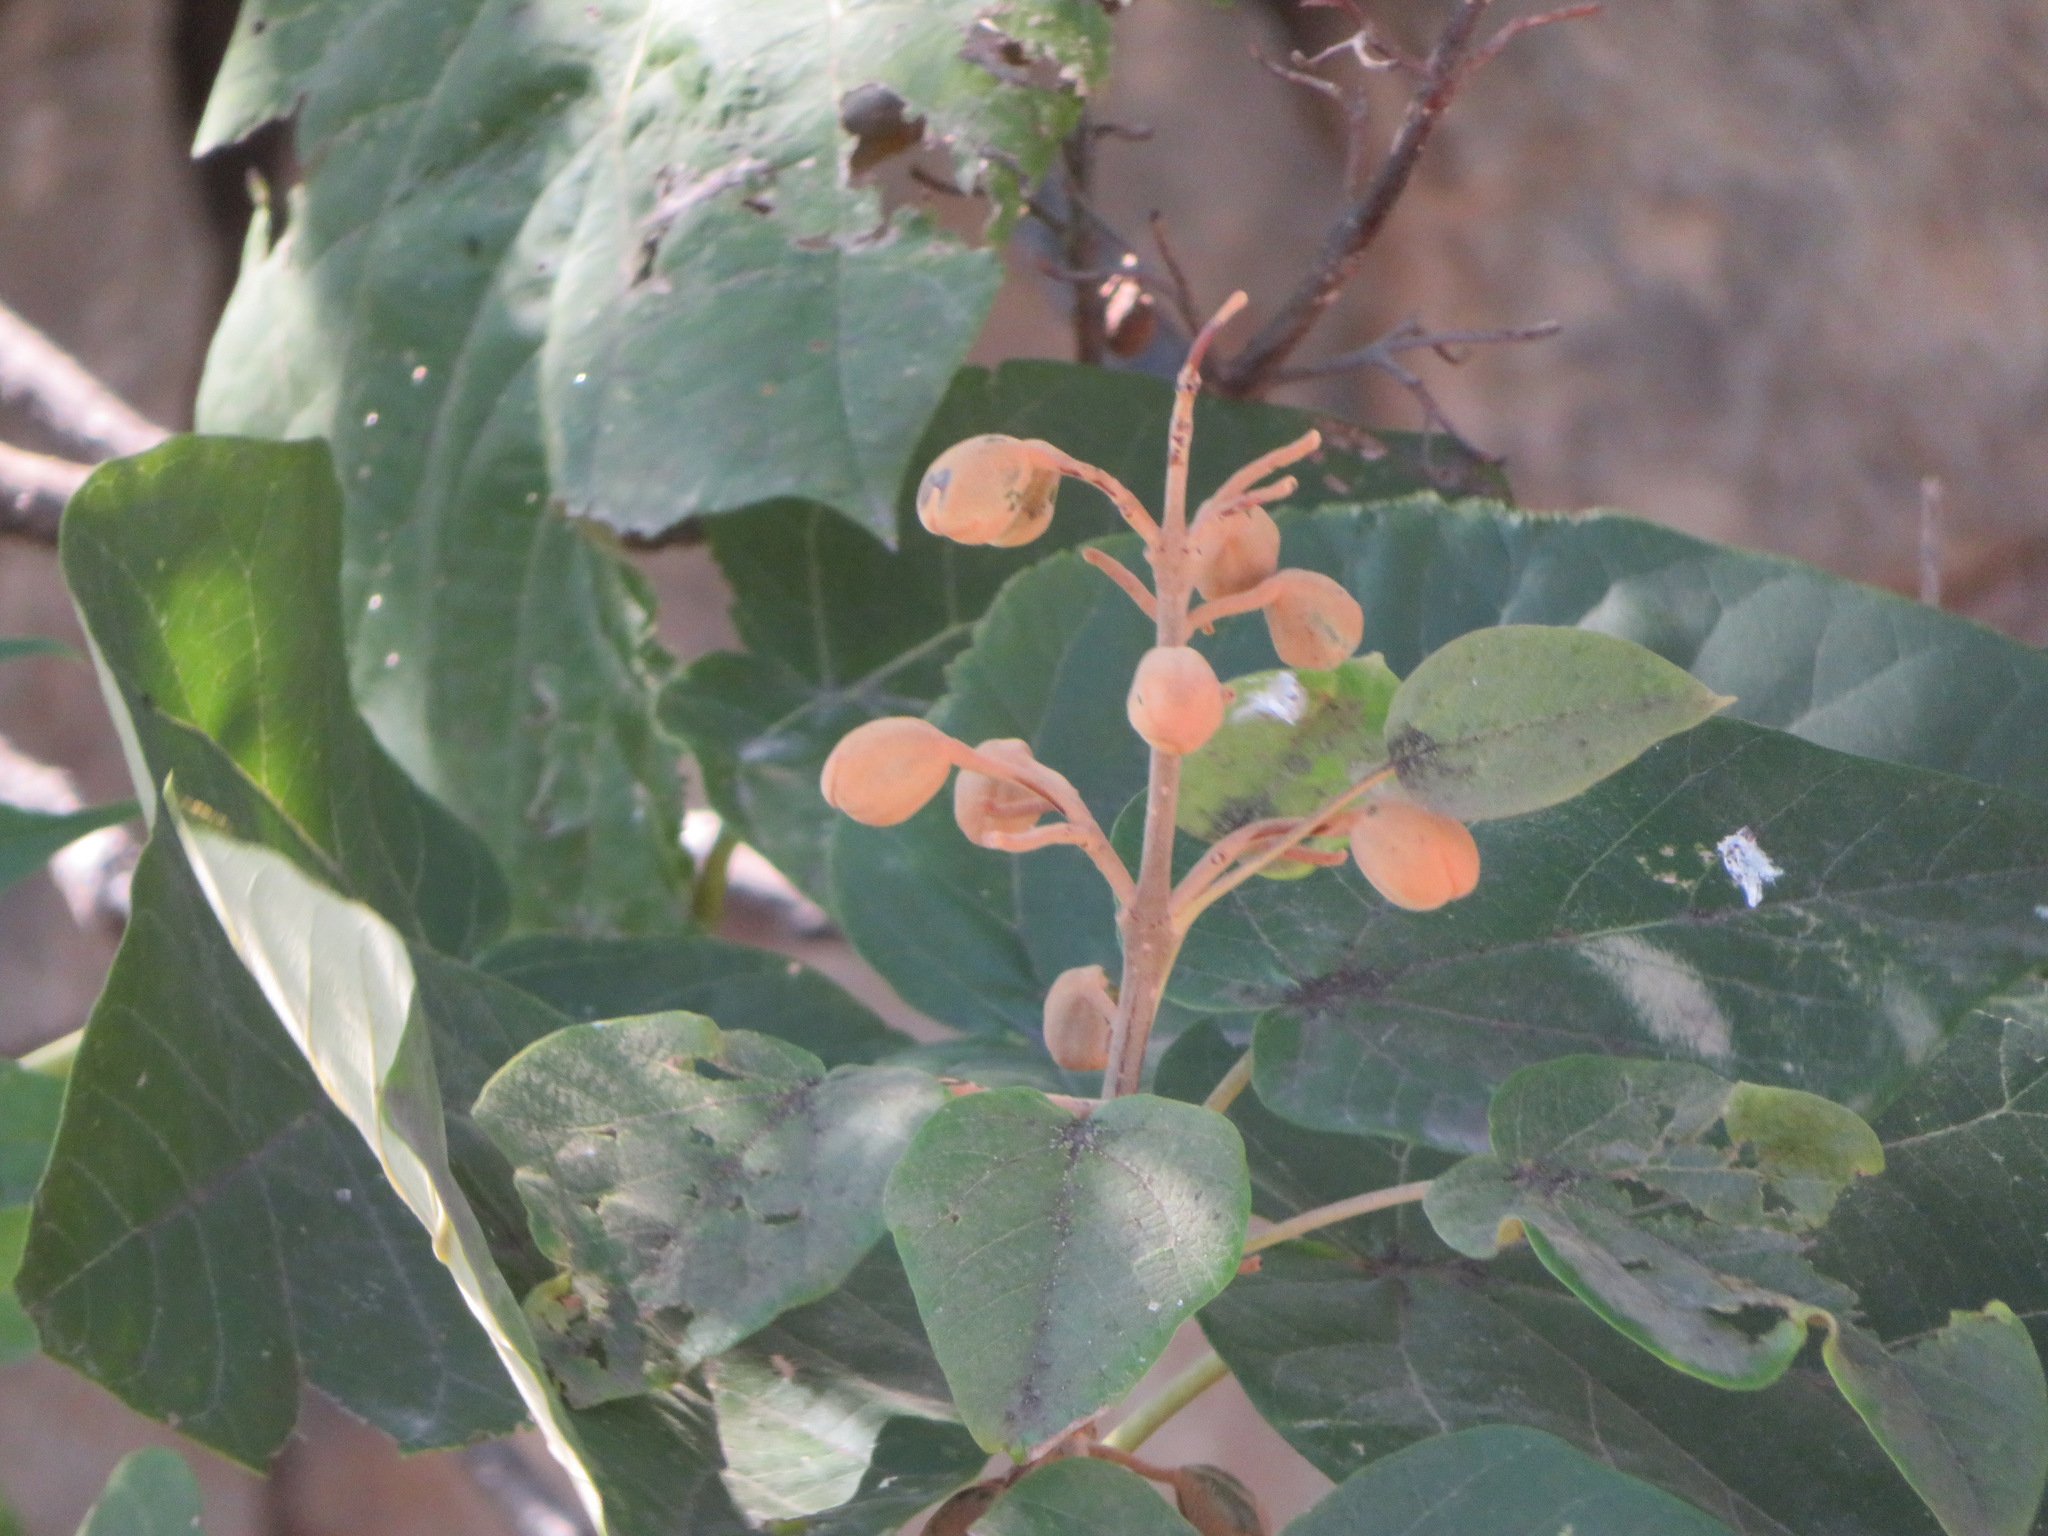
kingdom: Plantae
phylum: Tracheophyta
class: Magnoliopsida
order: Lamiales
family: Paulowniaceae
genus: Paulownia
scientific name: Paulownia tomentosa
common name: Foxglove-tree
